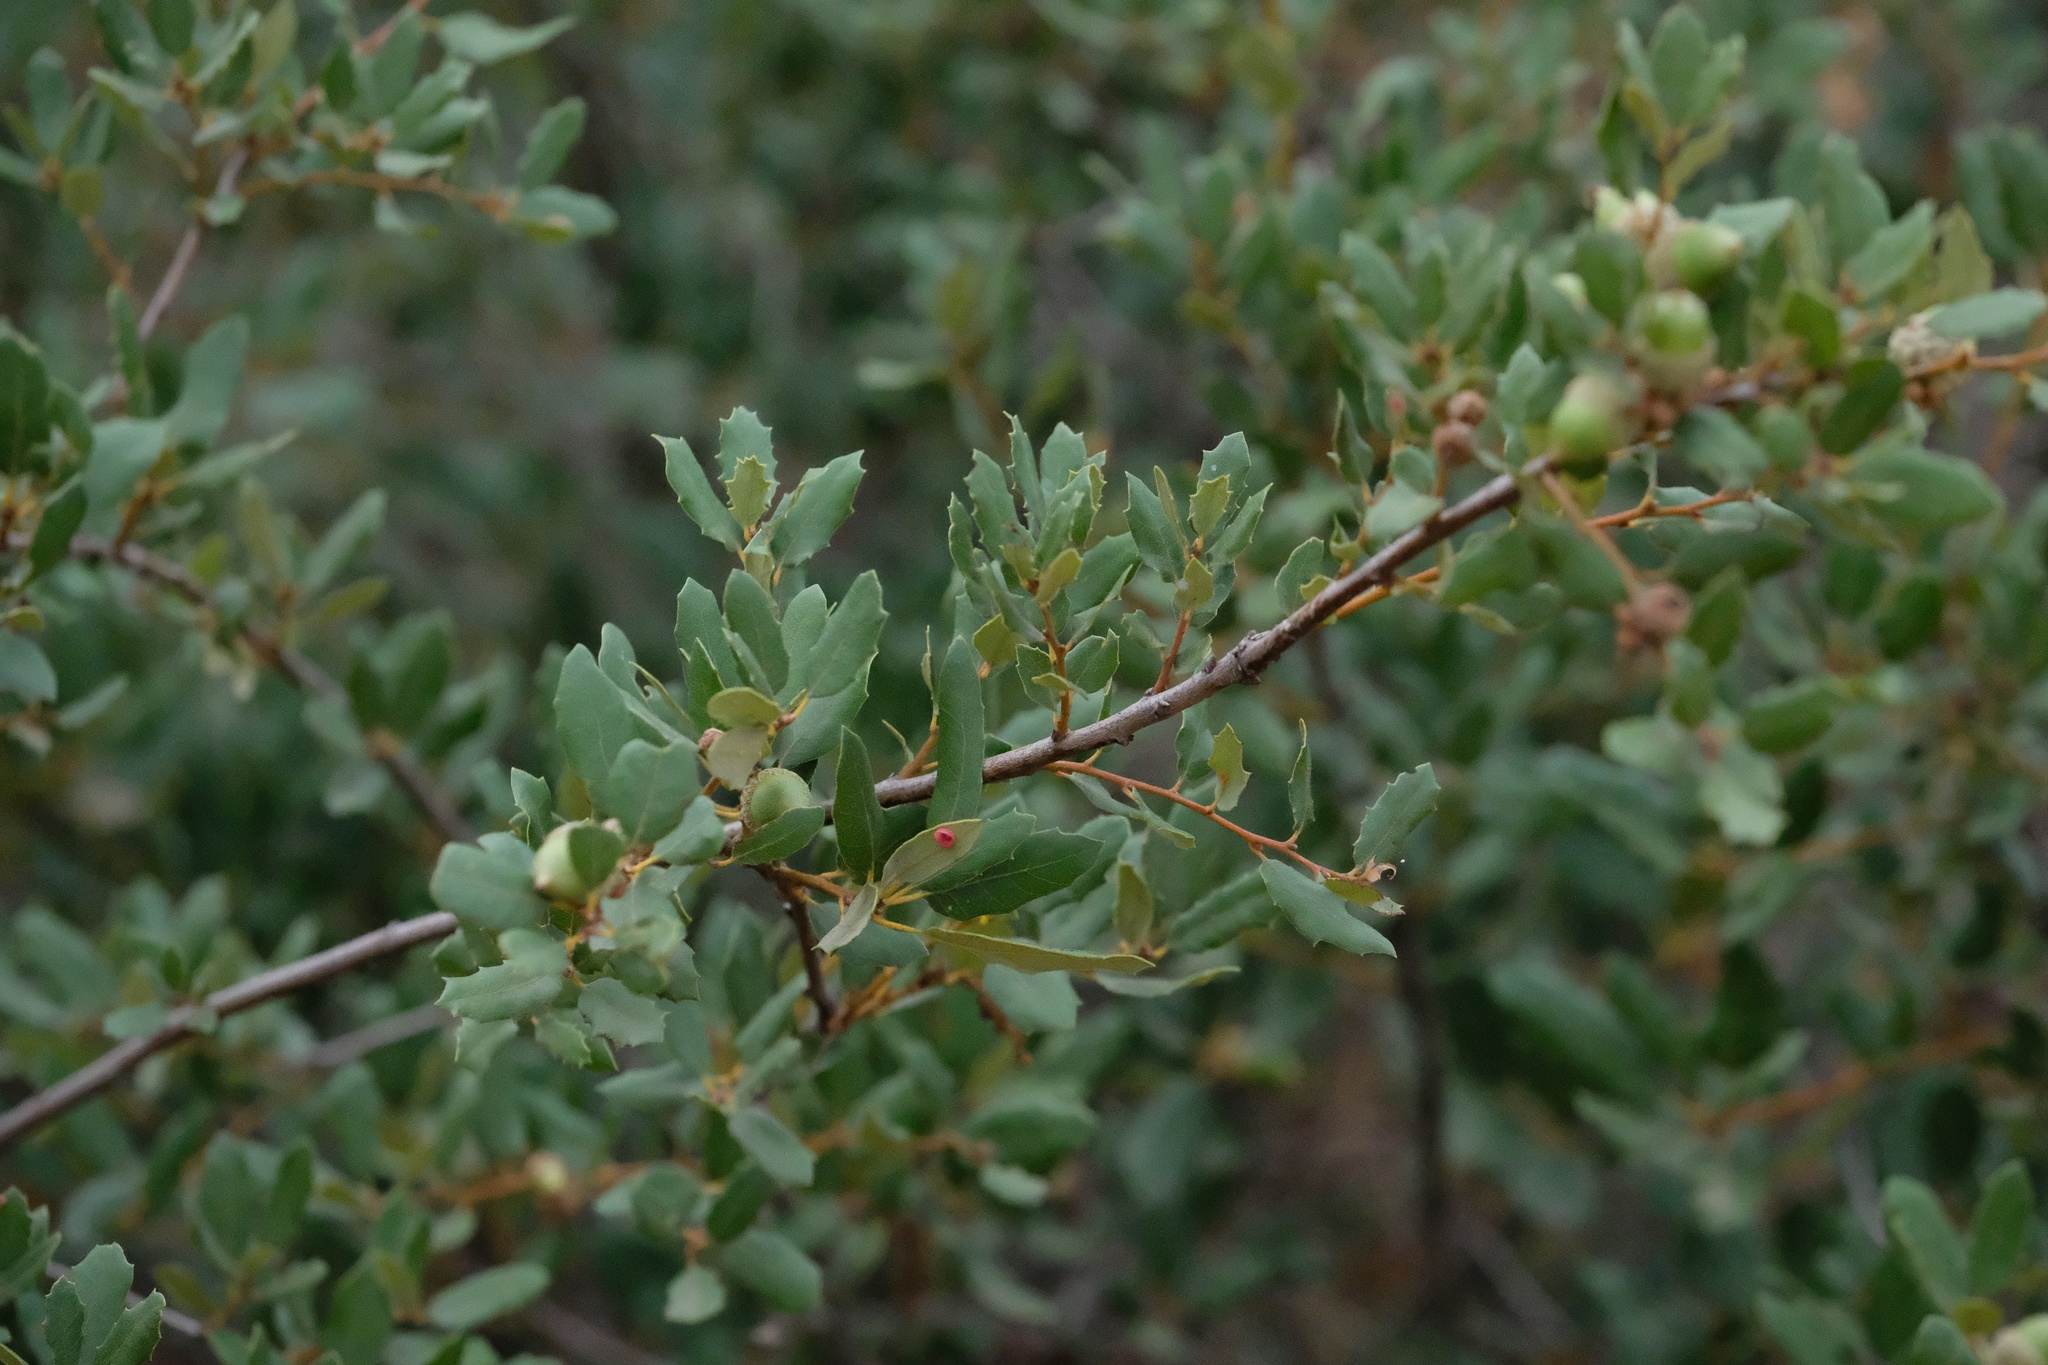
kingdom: Plantae
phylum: Tracheophyta
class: Magnoliopsida
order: Fagales
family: Fagaceae
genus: Quercus
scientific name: Quercus berberidifolia
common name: California scrub oak
